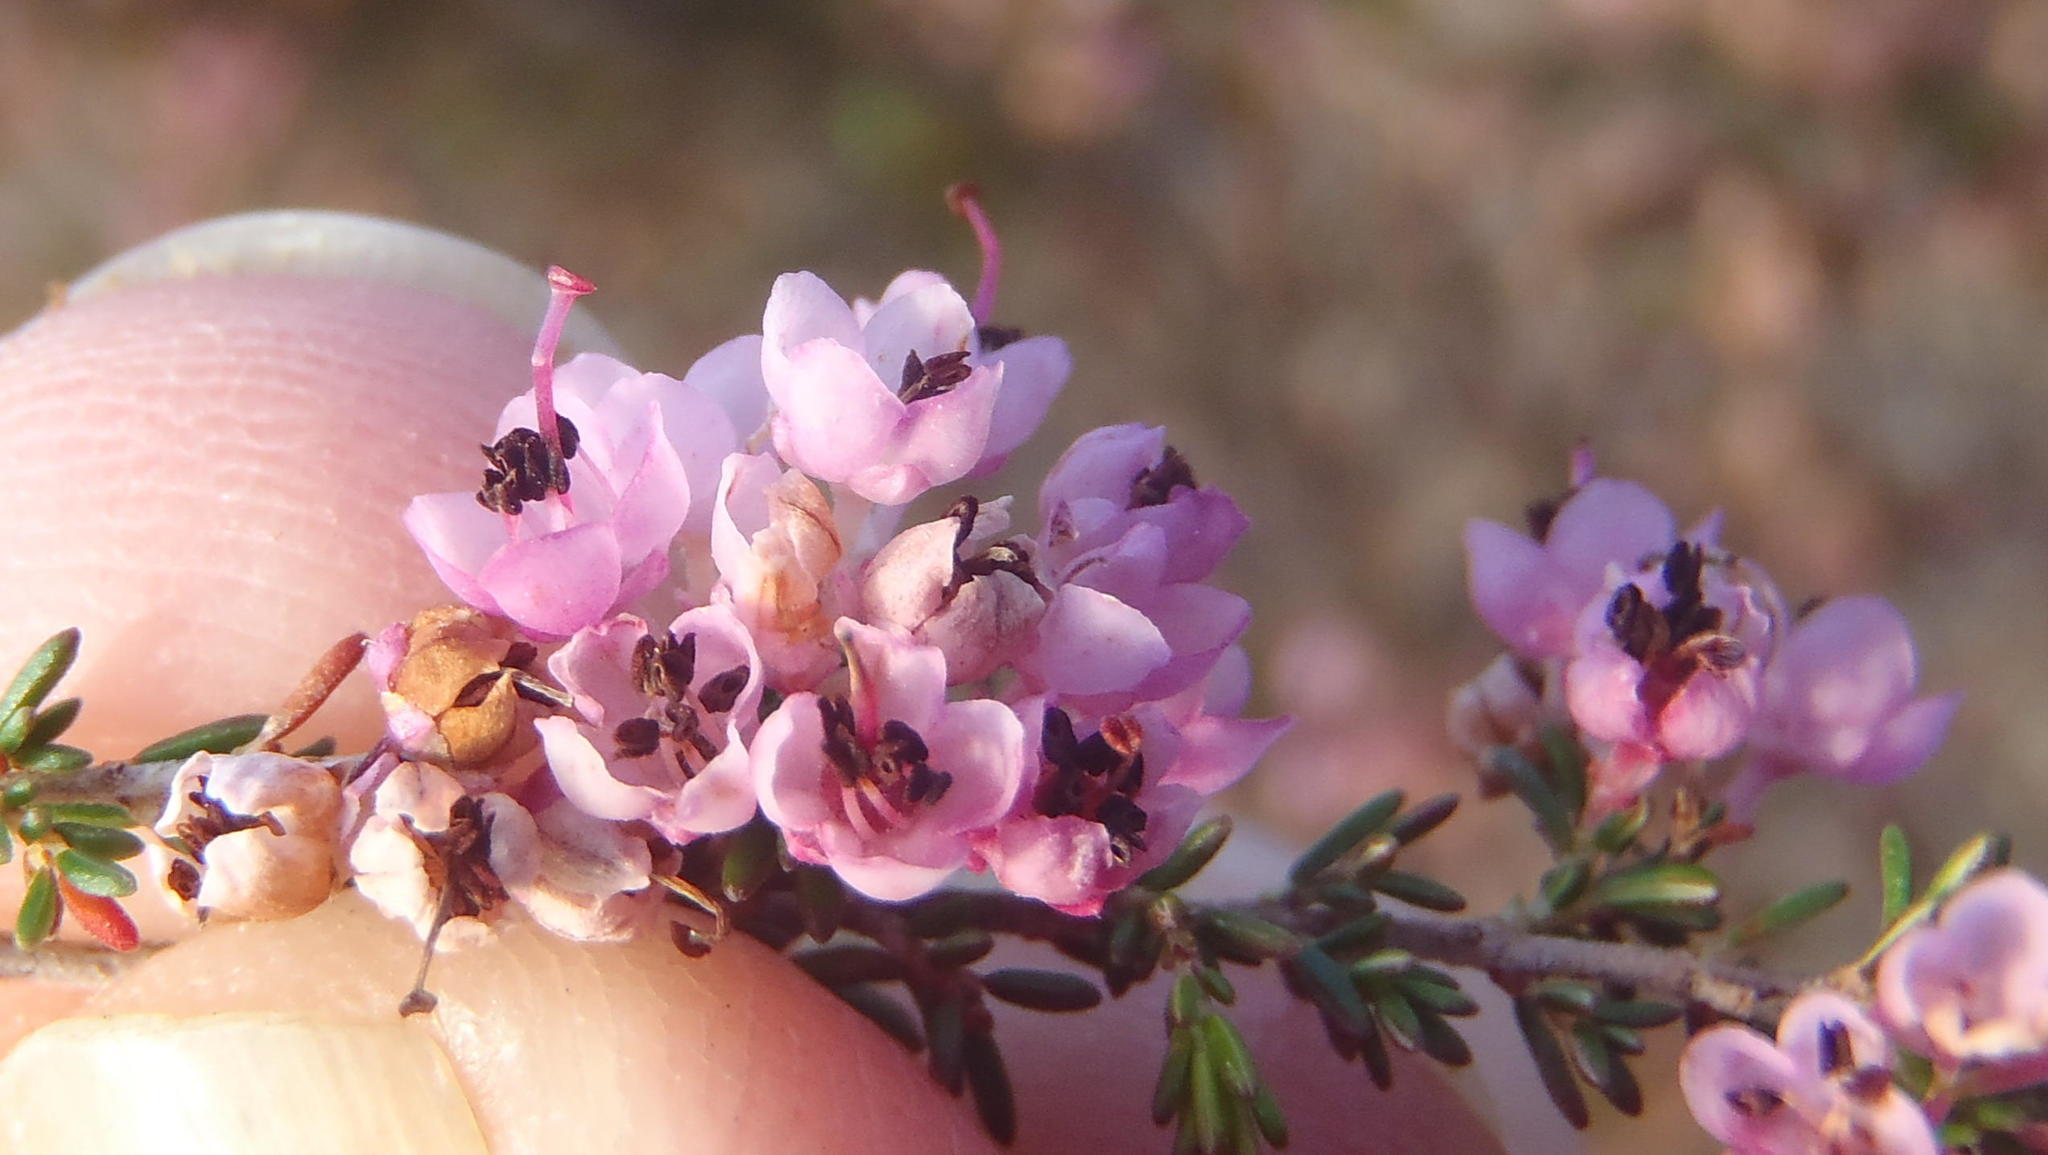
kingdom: Plantae
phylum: Tracheophyta
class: Magnoliopsida
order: Ericales
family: Ericaceae
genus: Erica
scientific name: Erica sparsa
